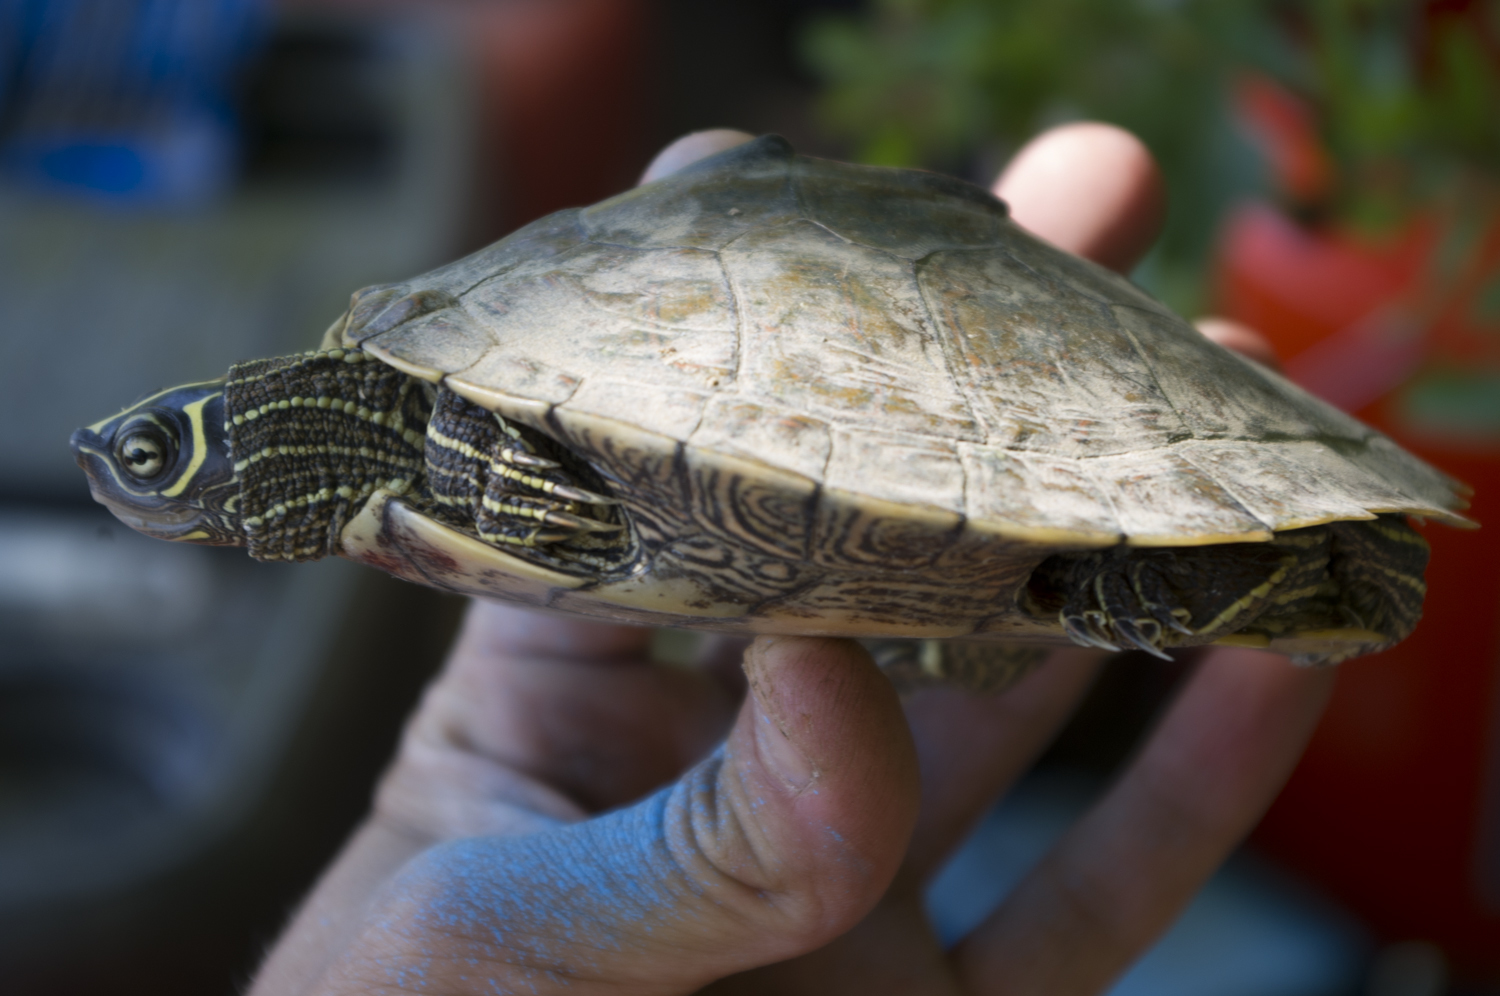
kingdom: Animalia
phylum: Chordata
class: Testudines
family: Emydidae
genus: Graptemys
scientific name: Graptemys pseudogeographica
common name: False map turtle
